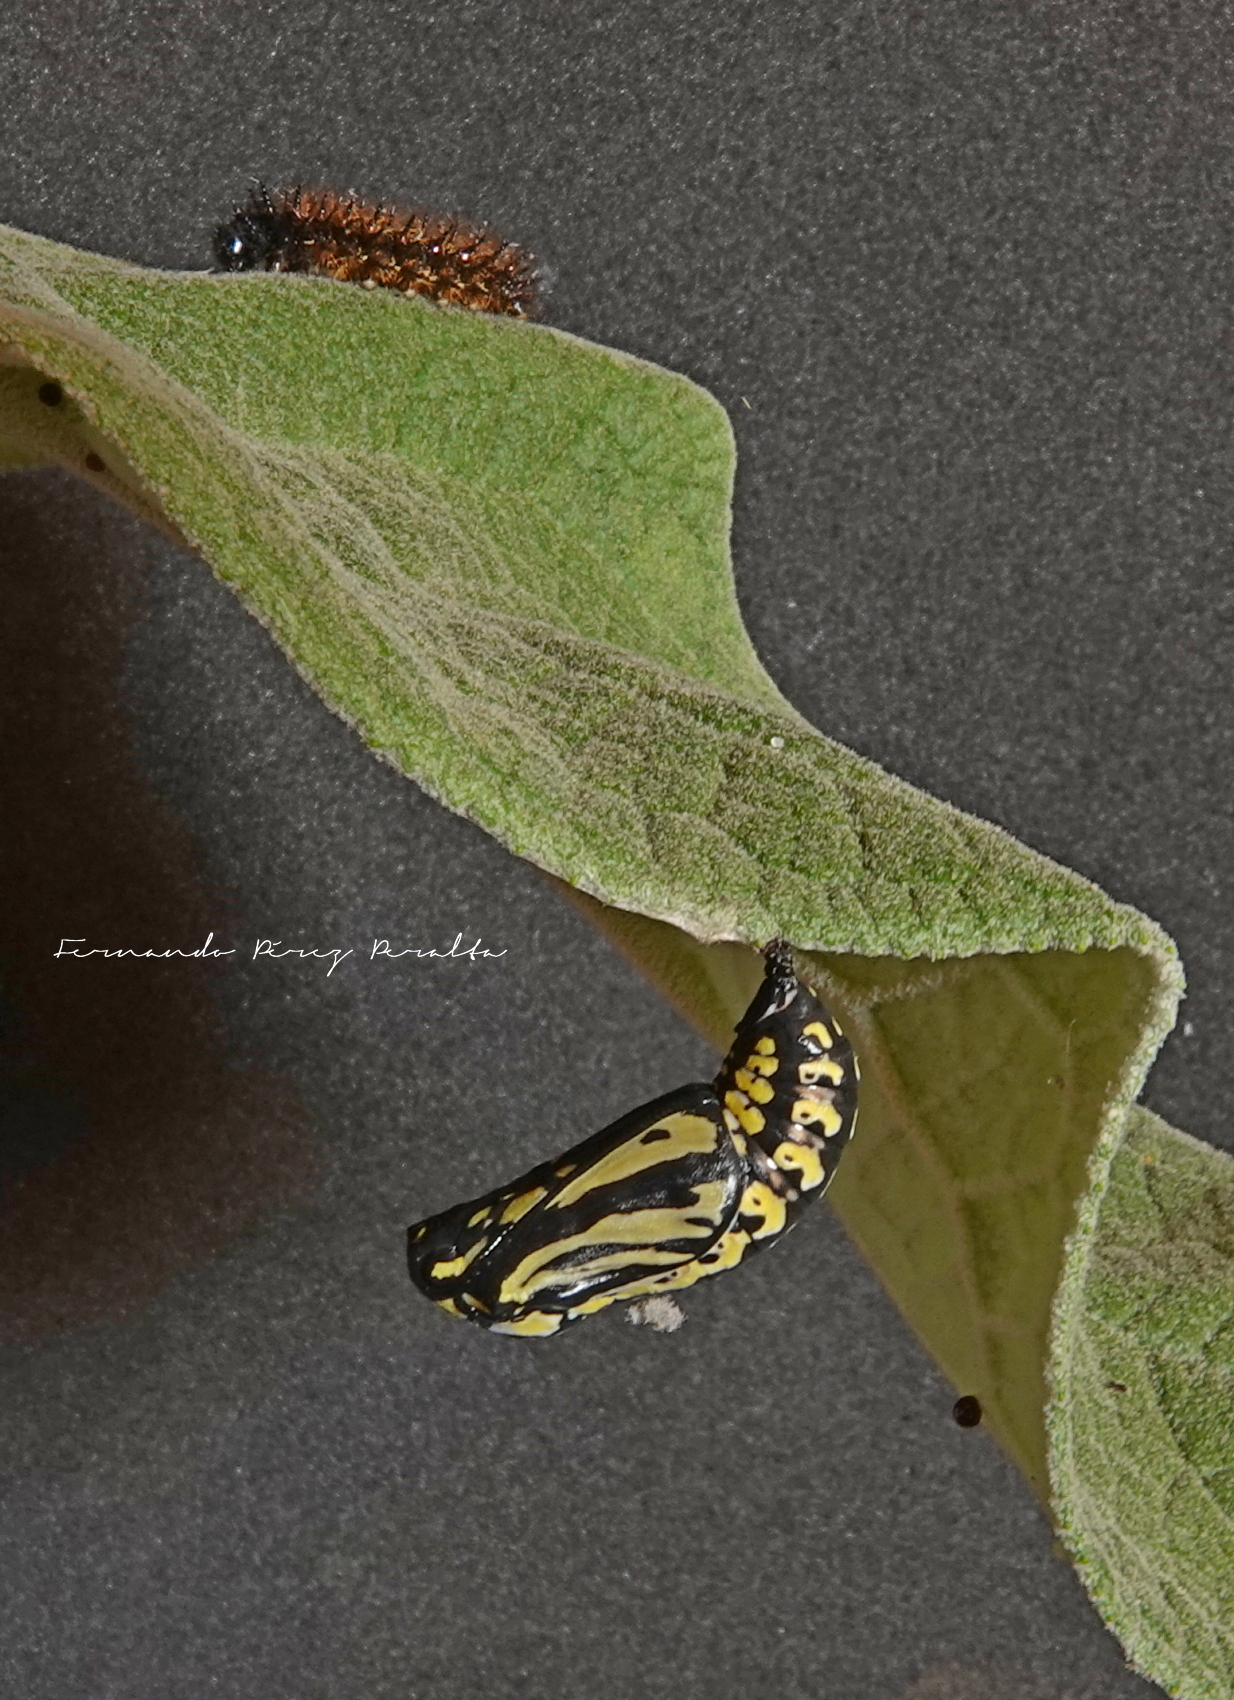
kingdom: Animalia
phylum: Arthropoda
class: Insecta
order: Lepidoptera
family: Nymphalidae
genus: Chlosyne
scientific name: Chlosyne ehrenbergii
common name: White-rayed patch
